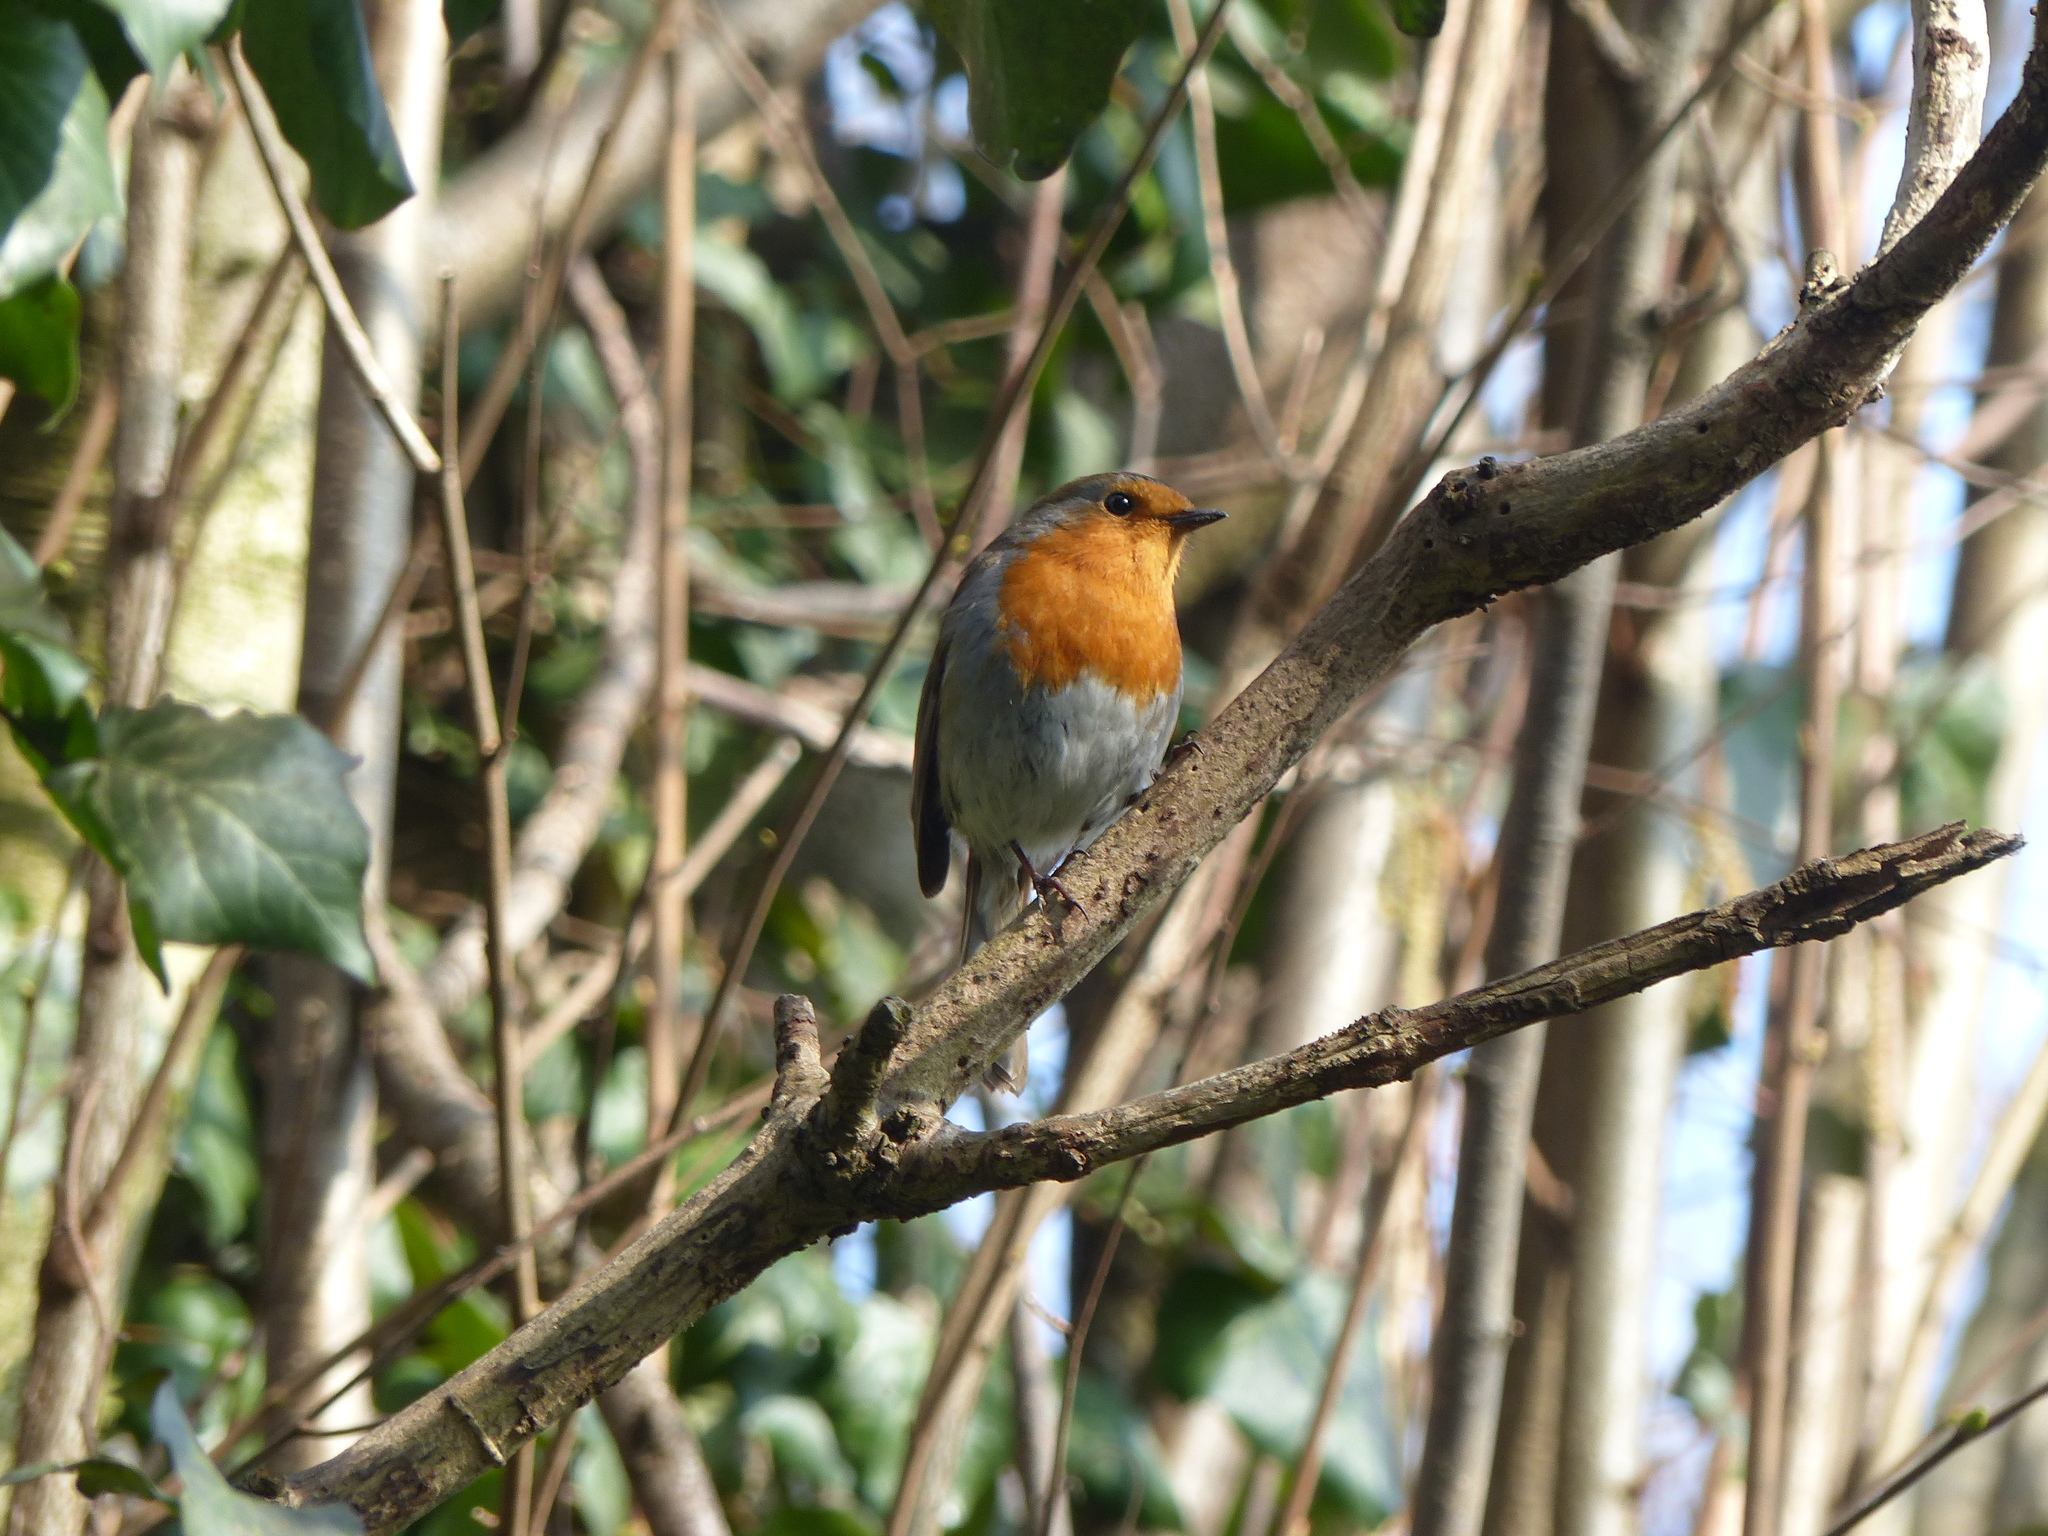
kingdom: Animalia
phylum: Chordata
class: Aves
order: Passeriformes
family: Muscicapidae
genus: Erithacus
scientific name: Erithacus rubecula
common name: European robin
